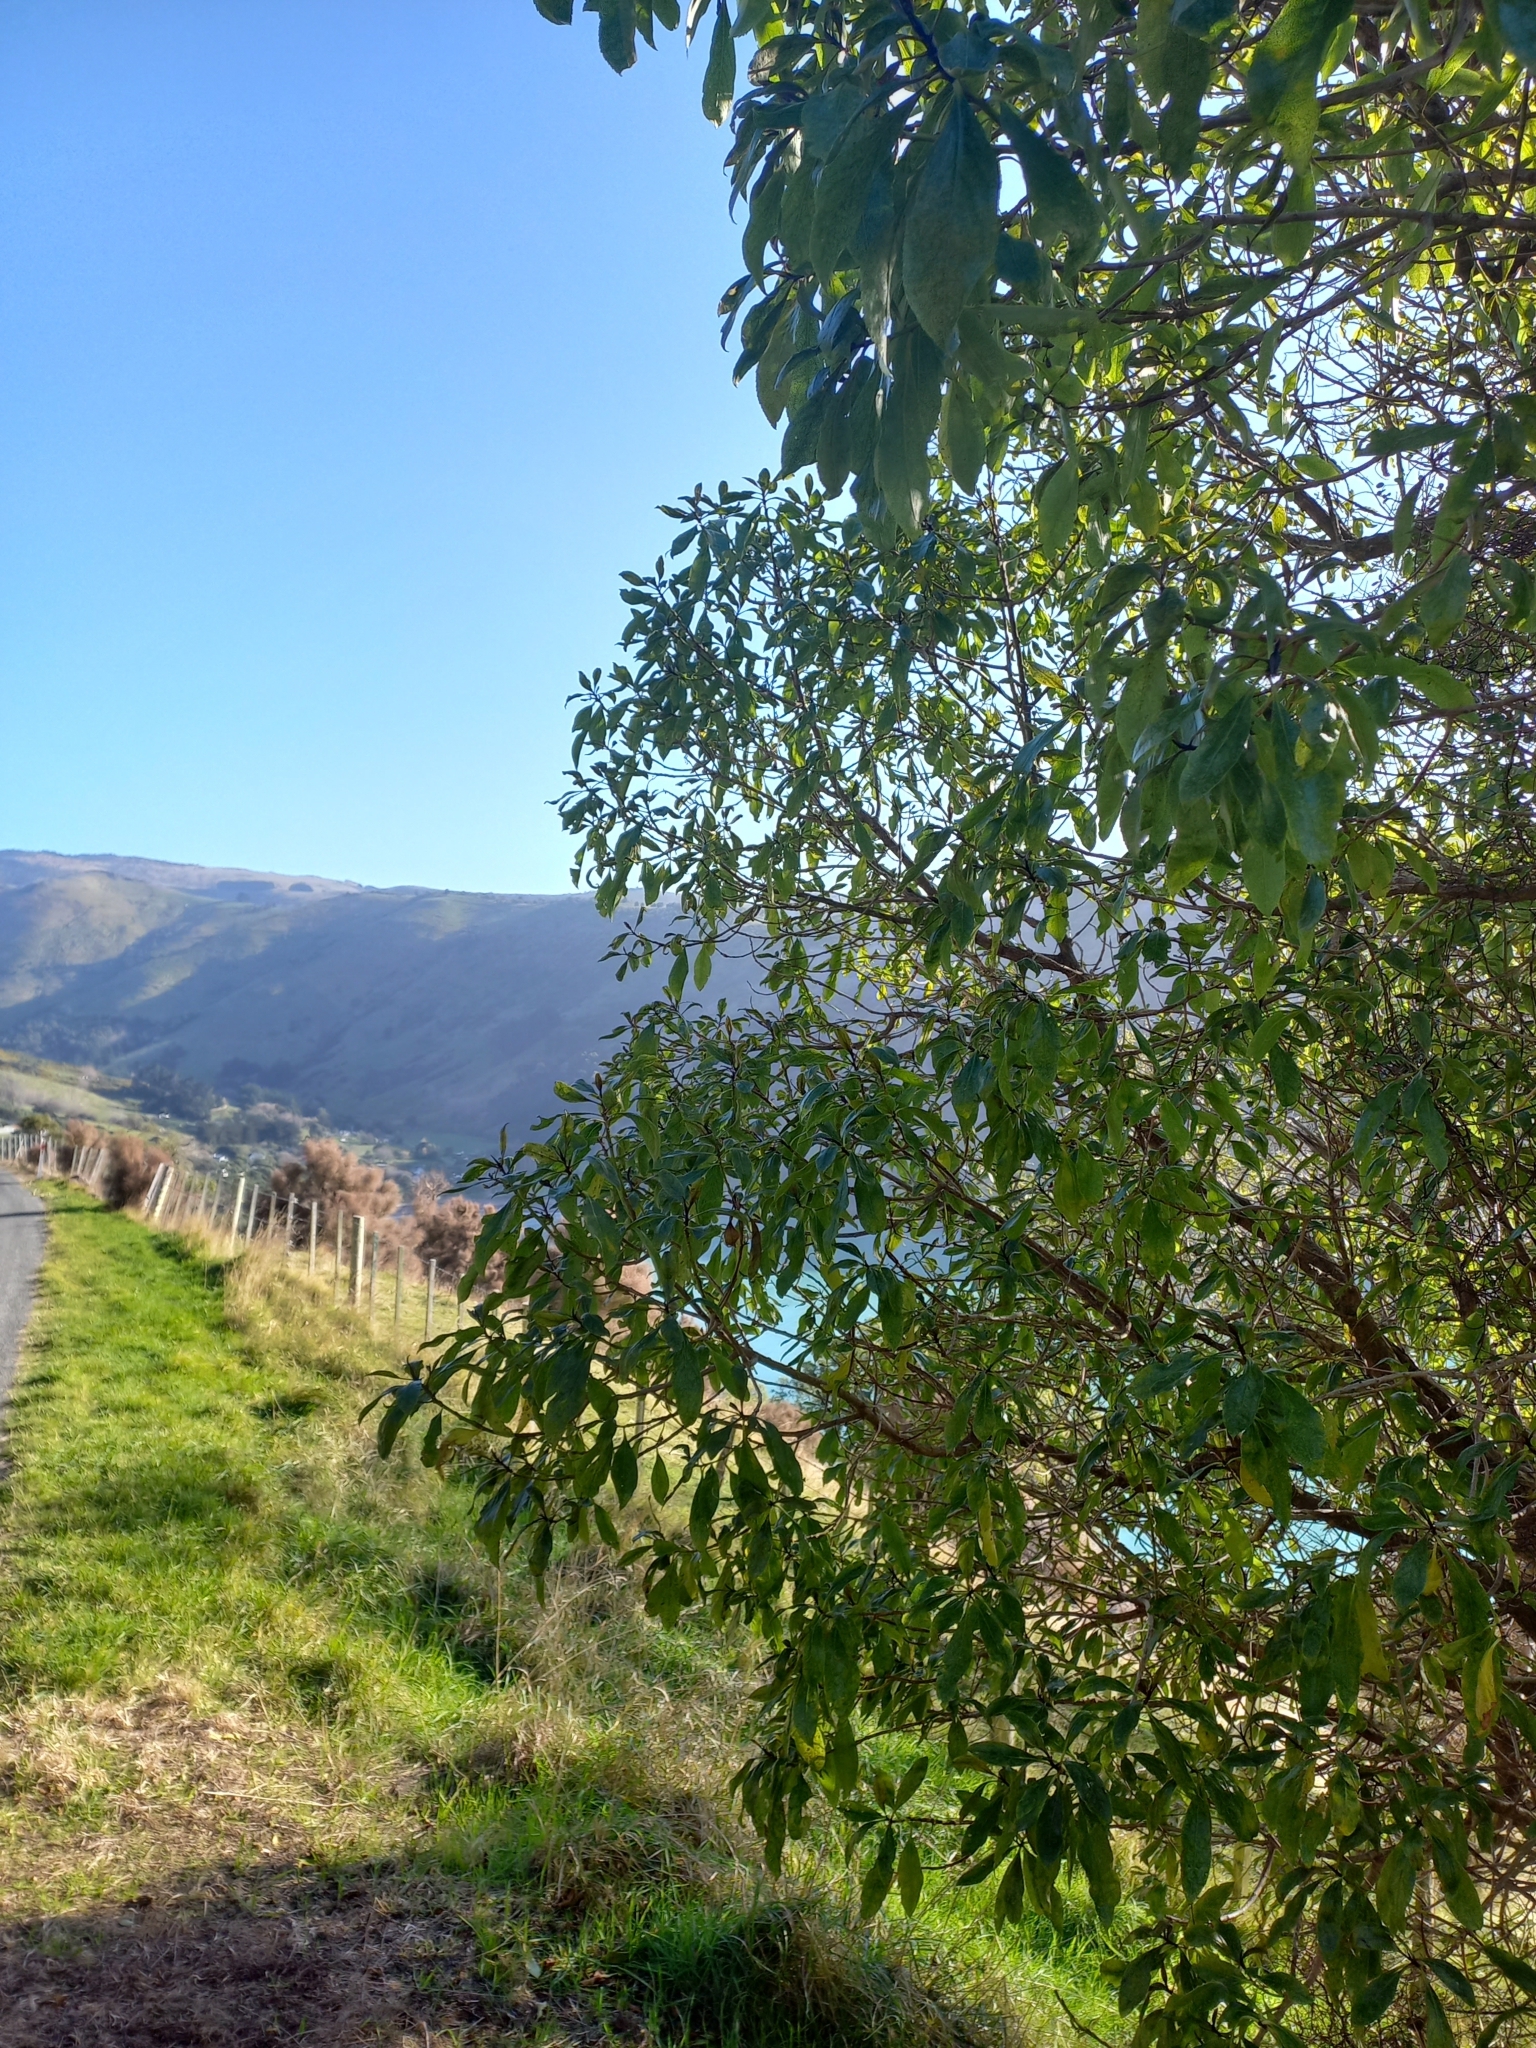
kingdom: Plantae
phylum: Tracheophyta
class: Magnoliopsida
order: Lamiales
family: Scrophulariaceae
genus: Myoporum
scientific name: Myoporum laetum
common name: Ngaio tree
